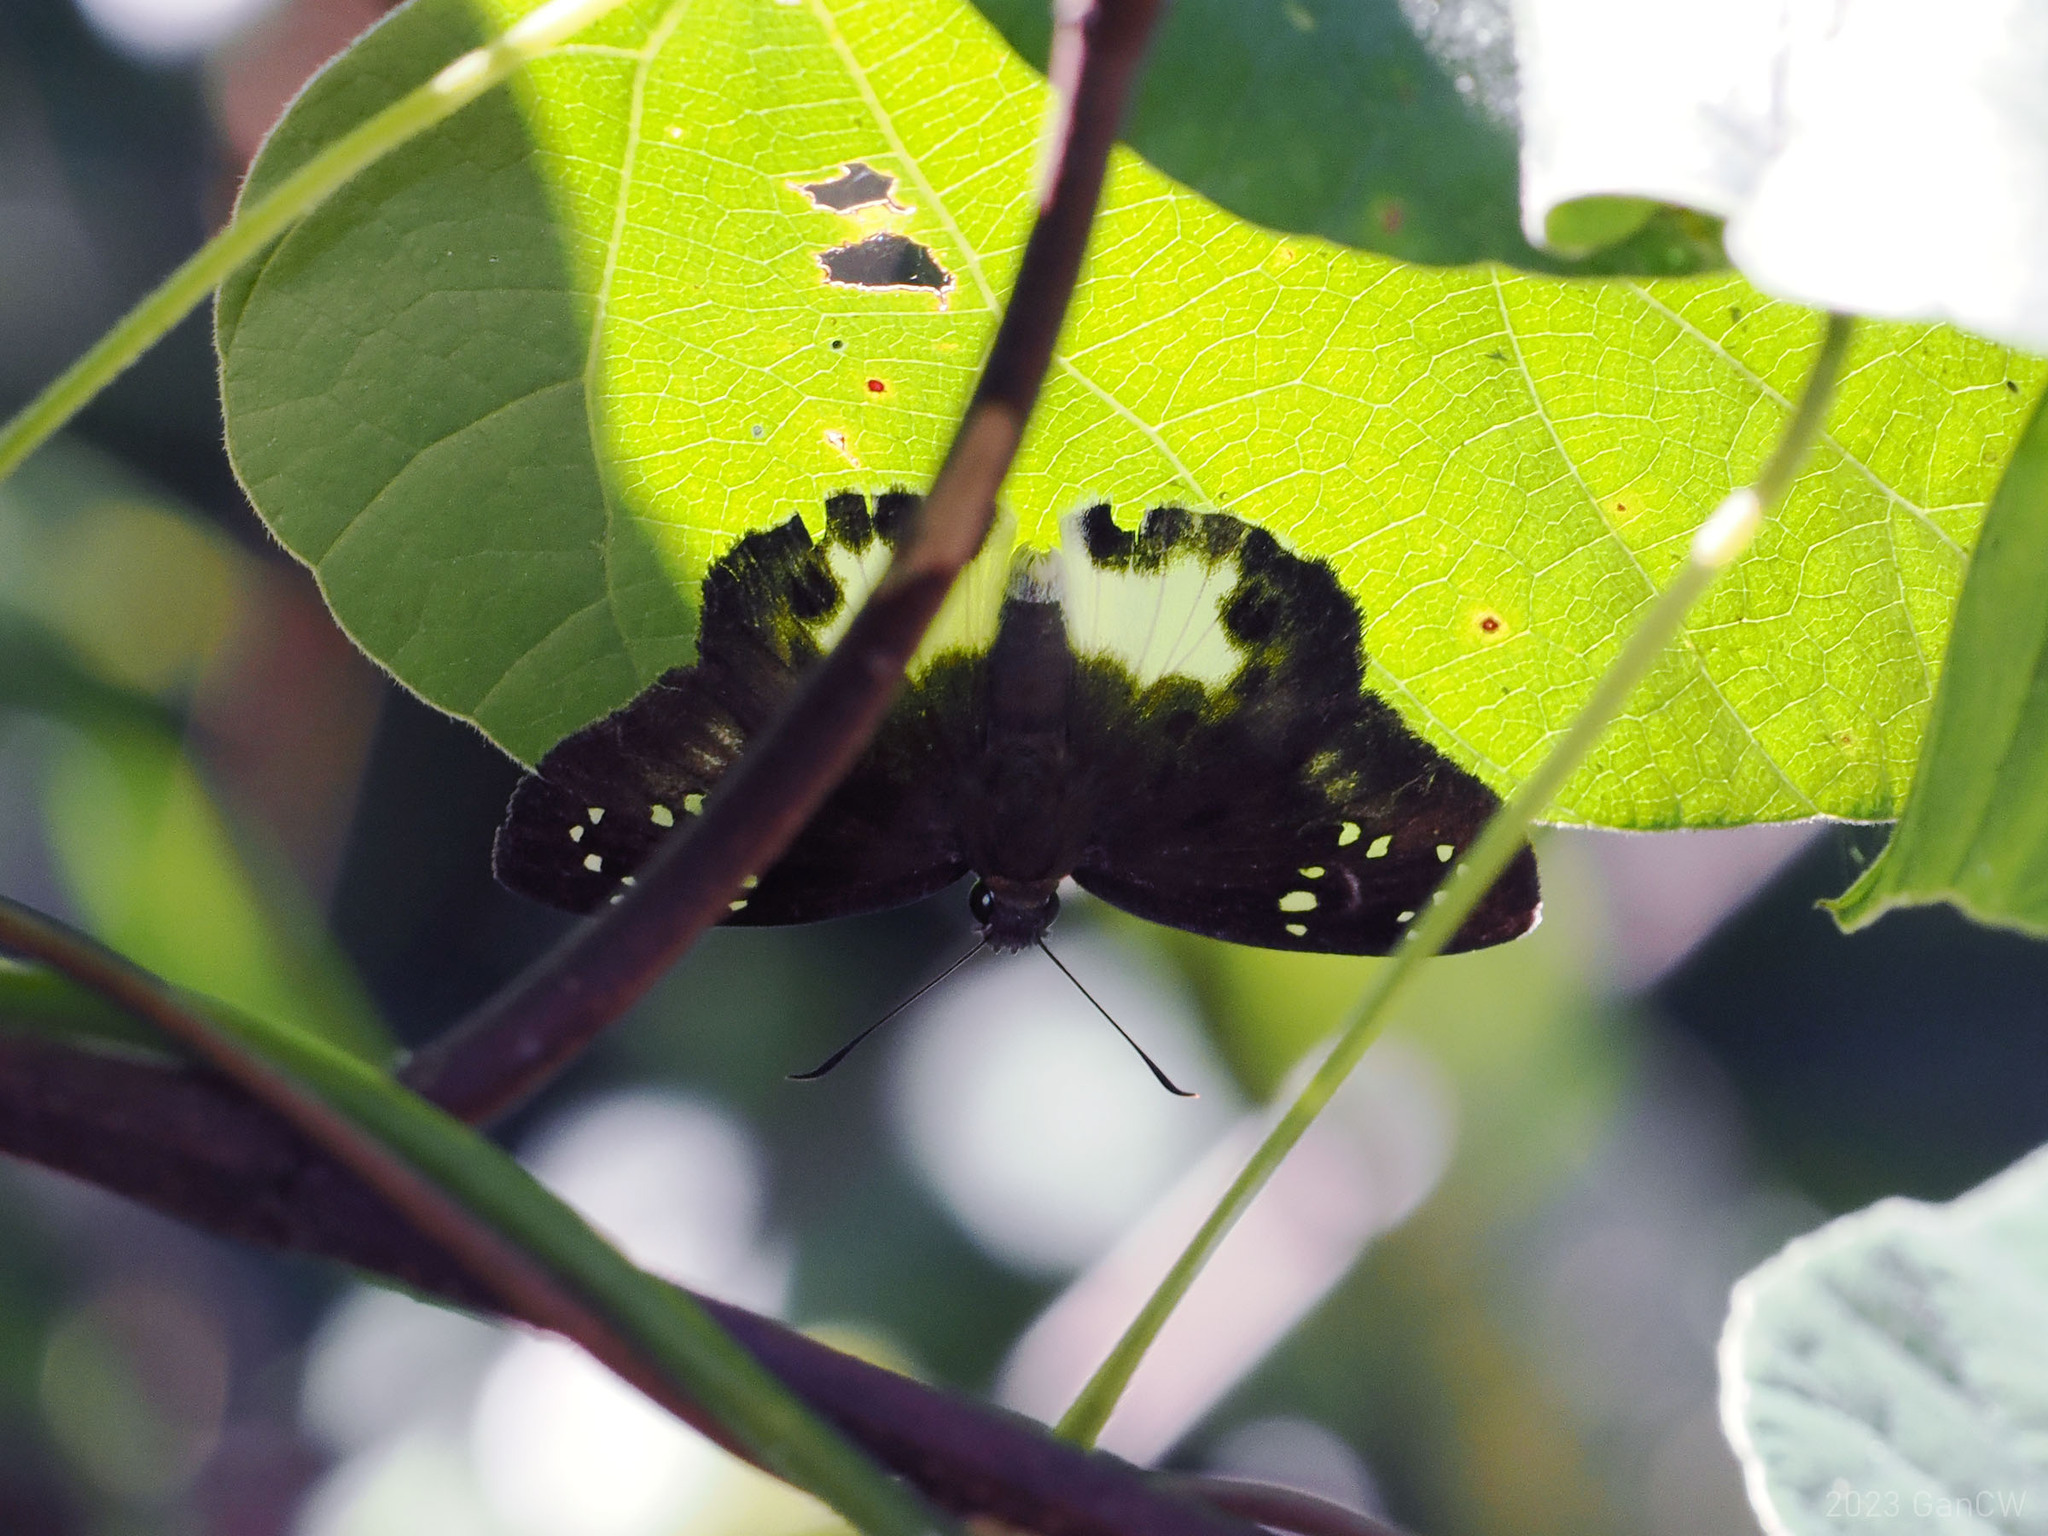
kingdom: Animalia
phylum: Arthropoda
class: Insecta
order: Lepidoptera
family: Hesperiidae
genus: Tagiades
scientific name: Tagiades trebellius
